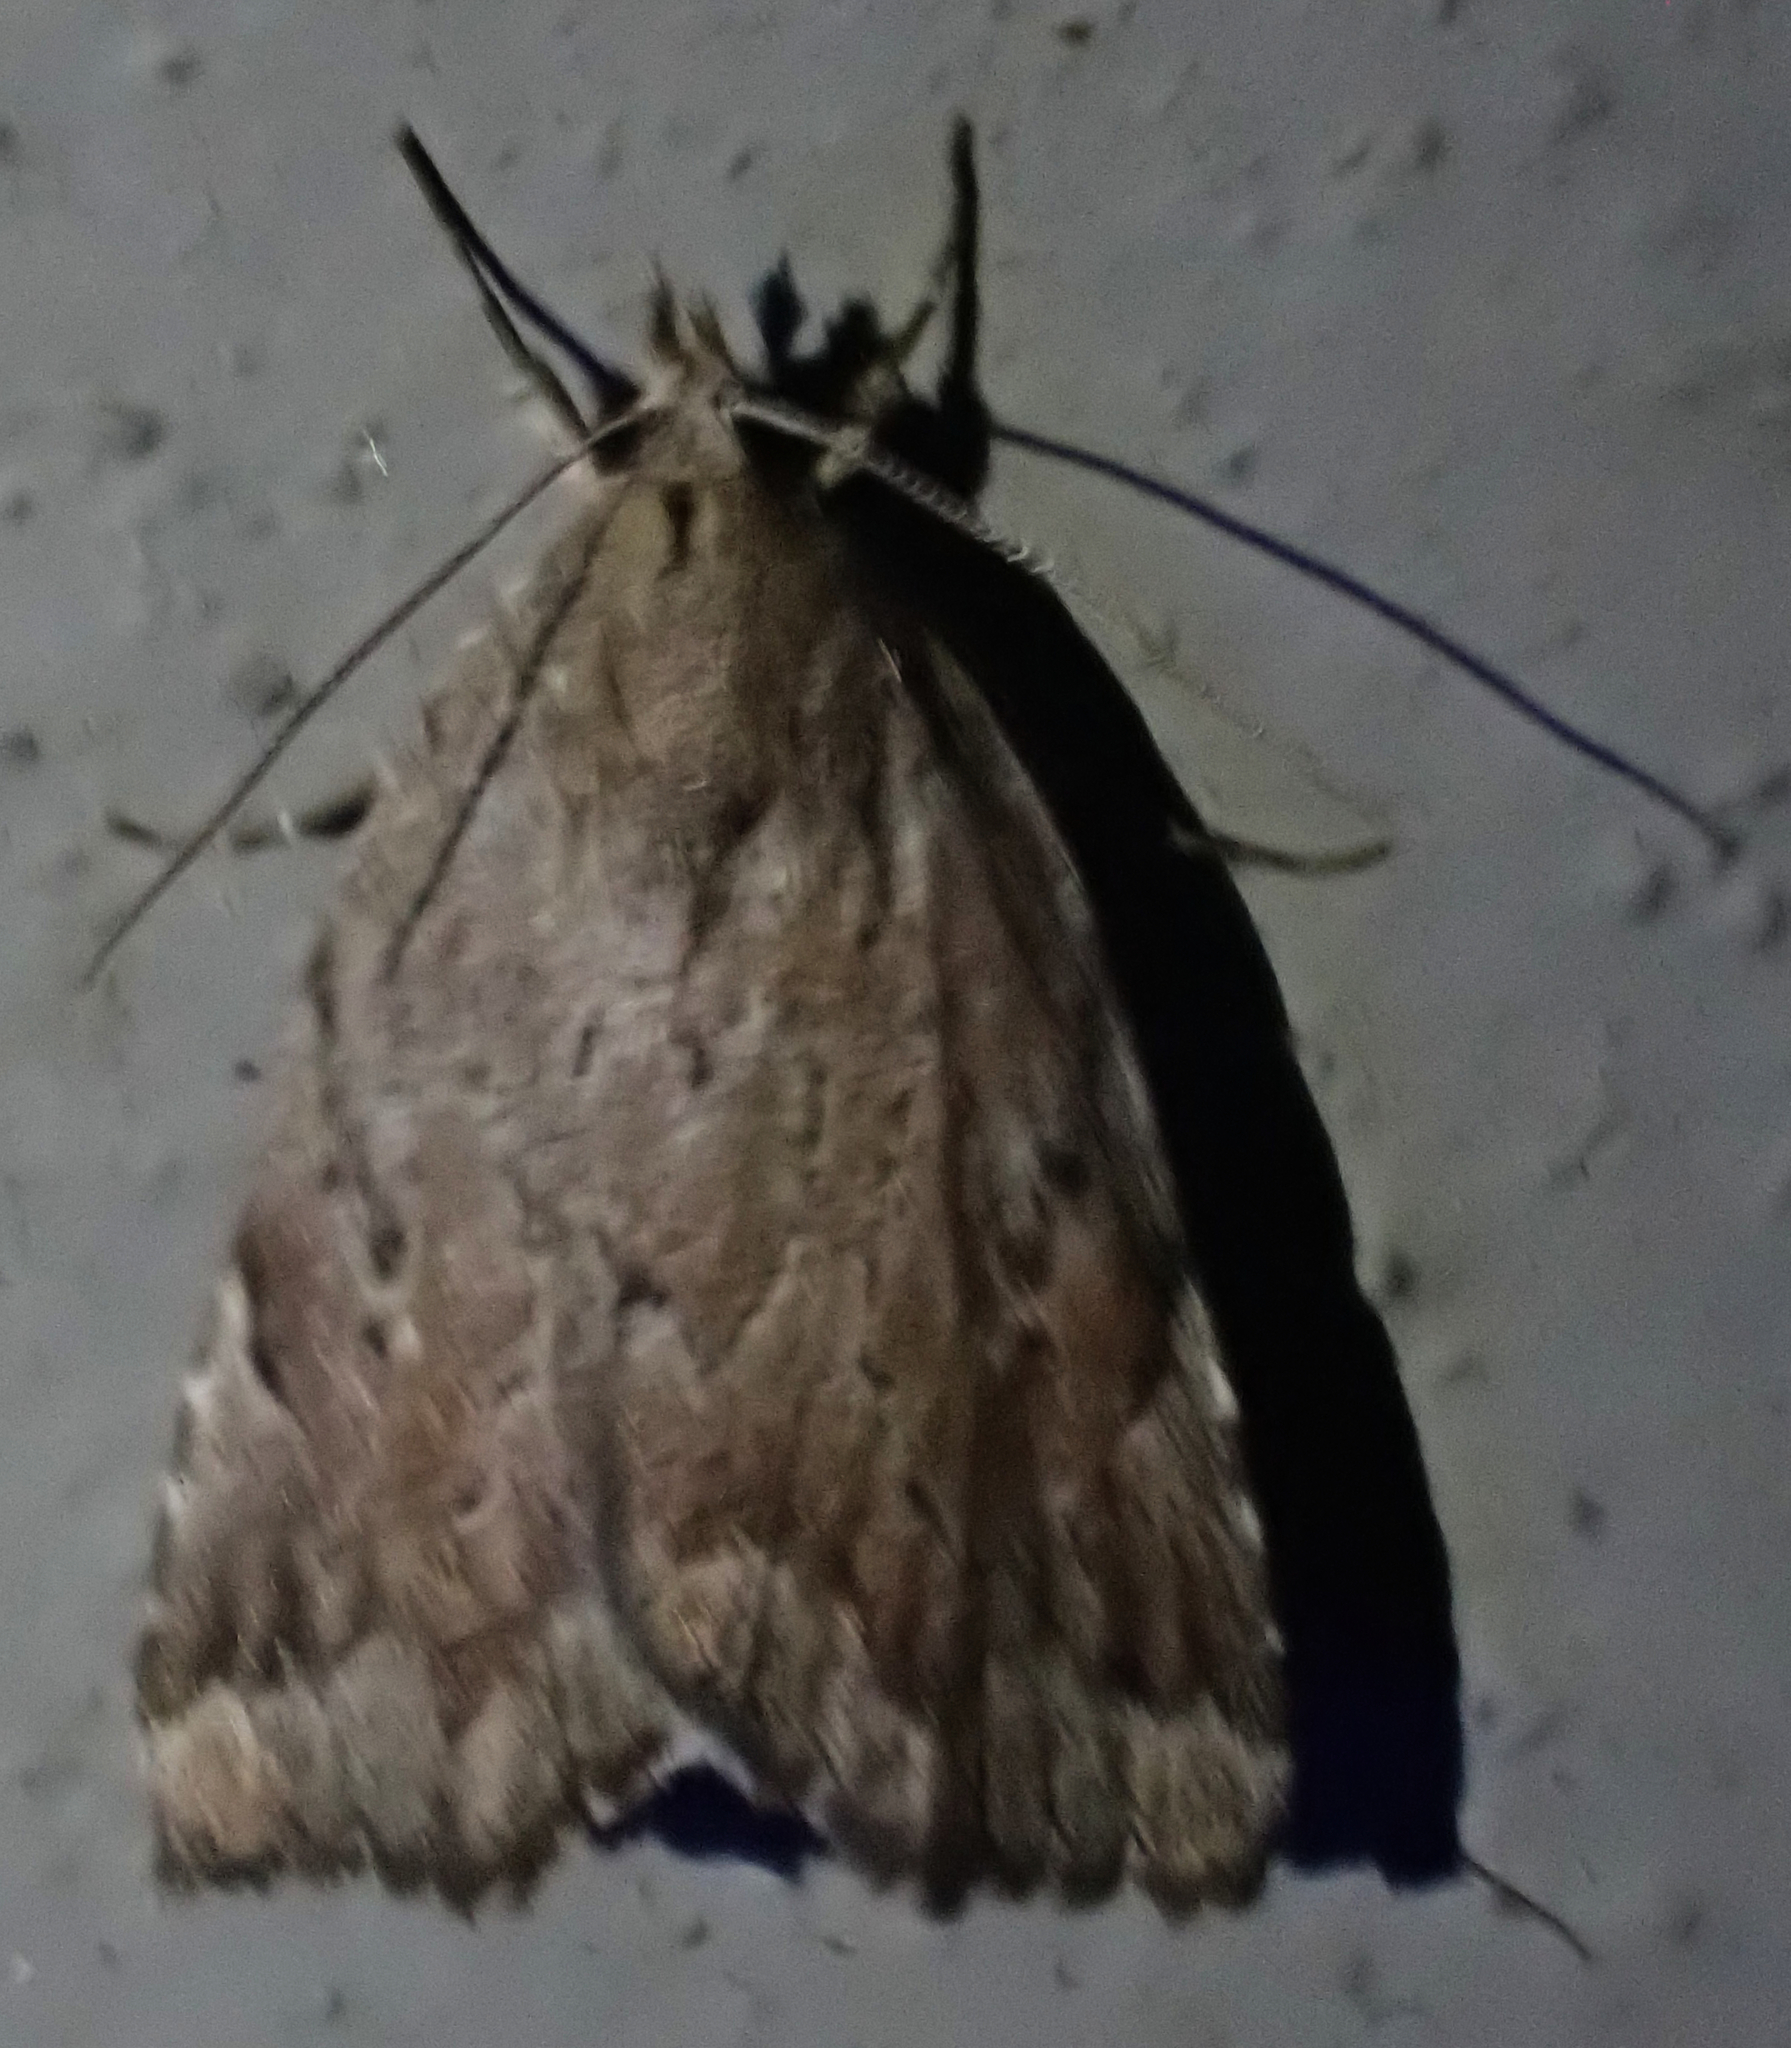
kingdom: Animalia
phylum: Arthropoda
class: Insecta
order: Lepidoptera
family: Erebidae
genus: Cutina
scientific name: Cutina albopunctella
